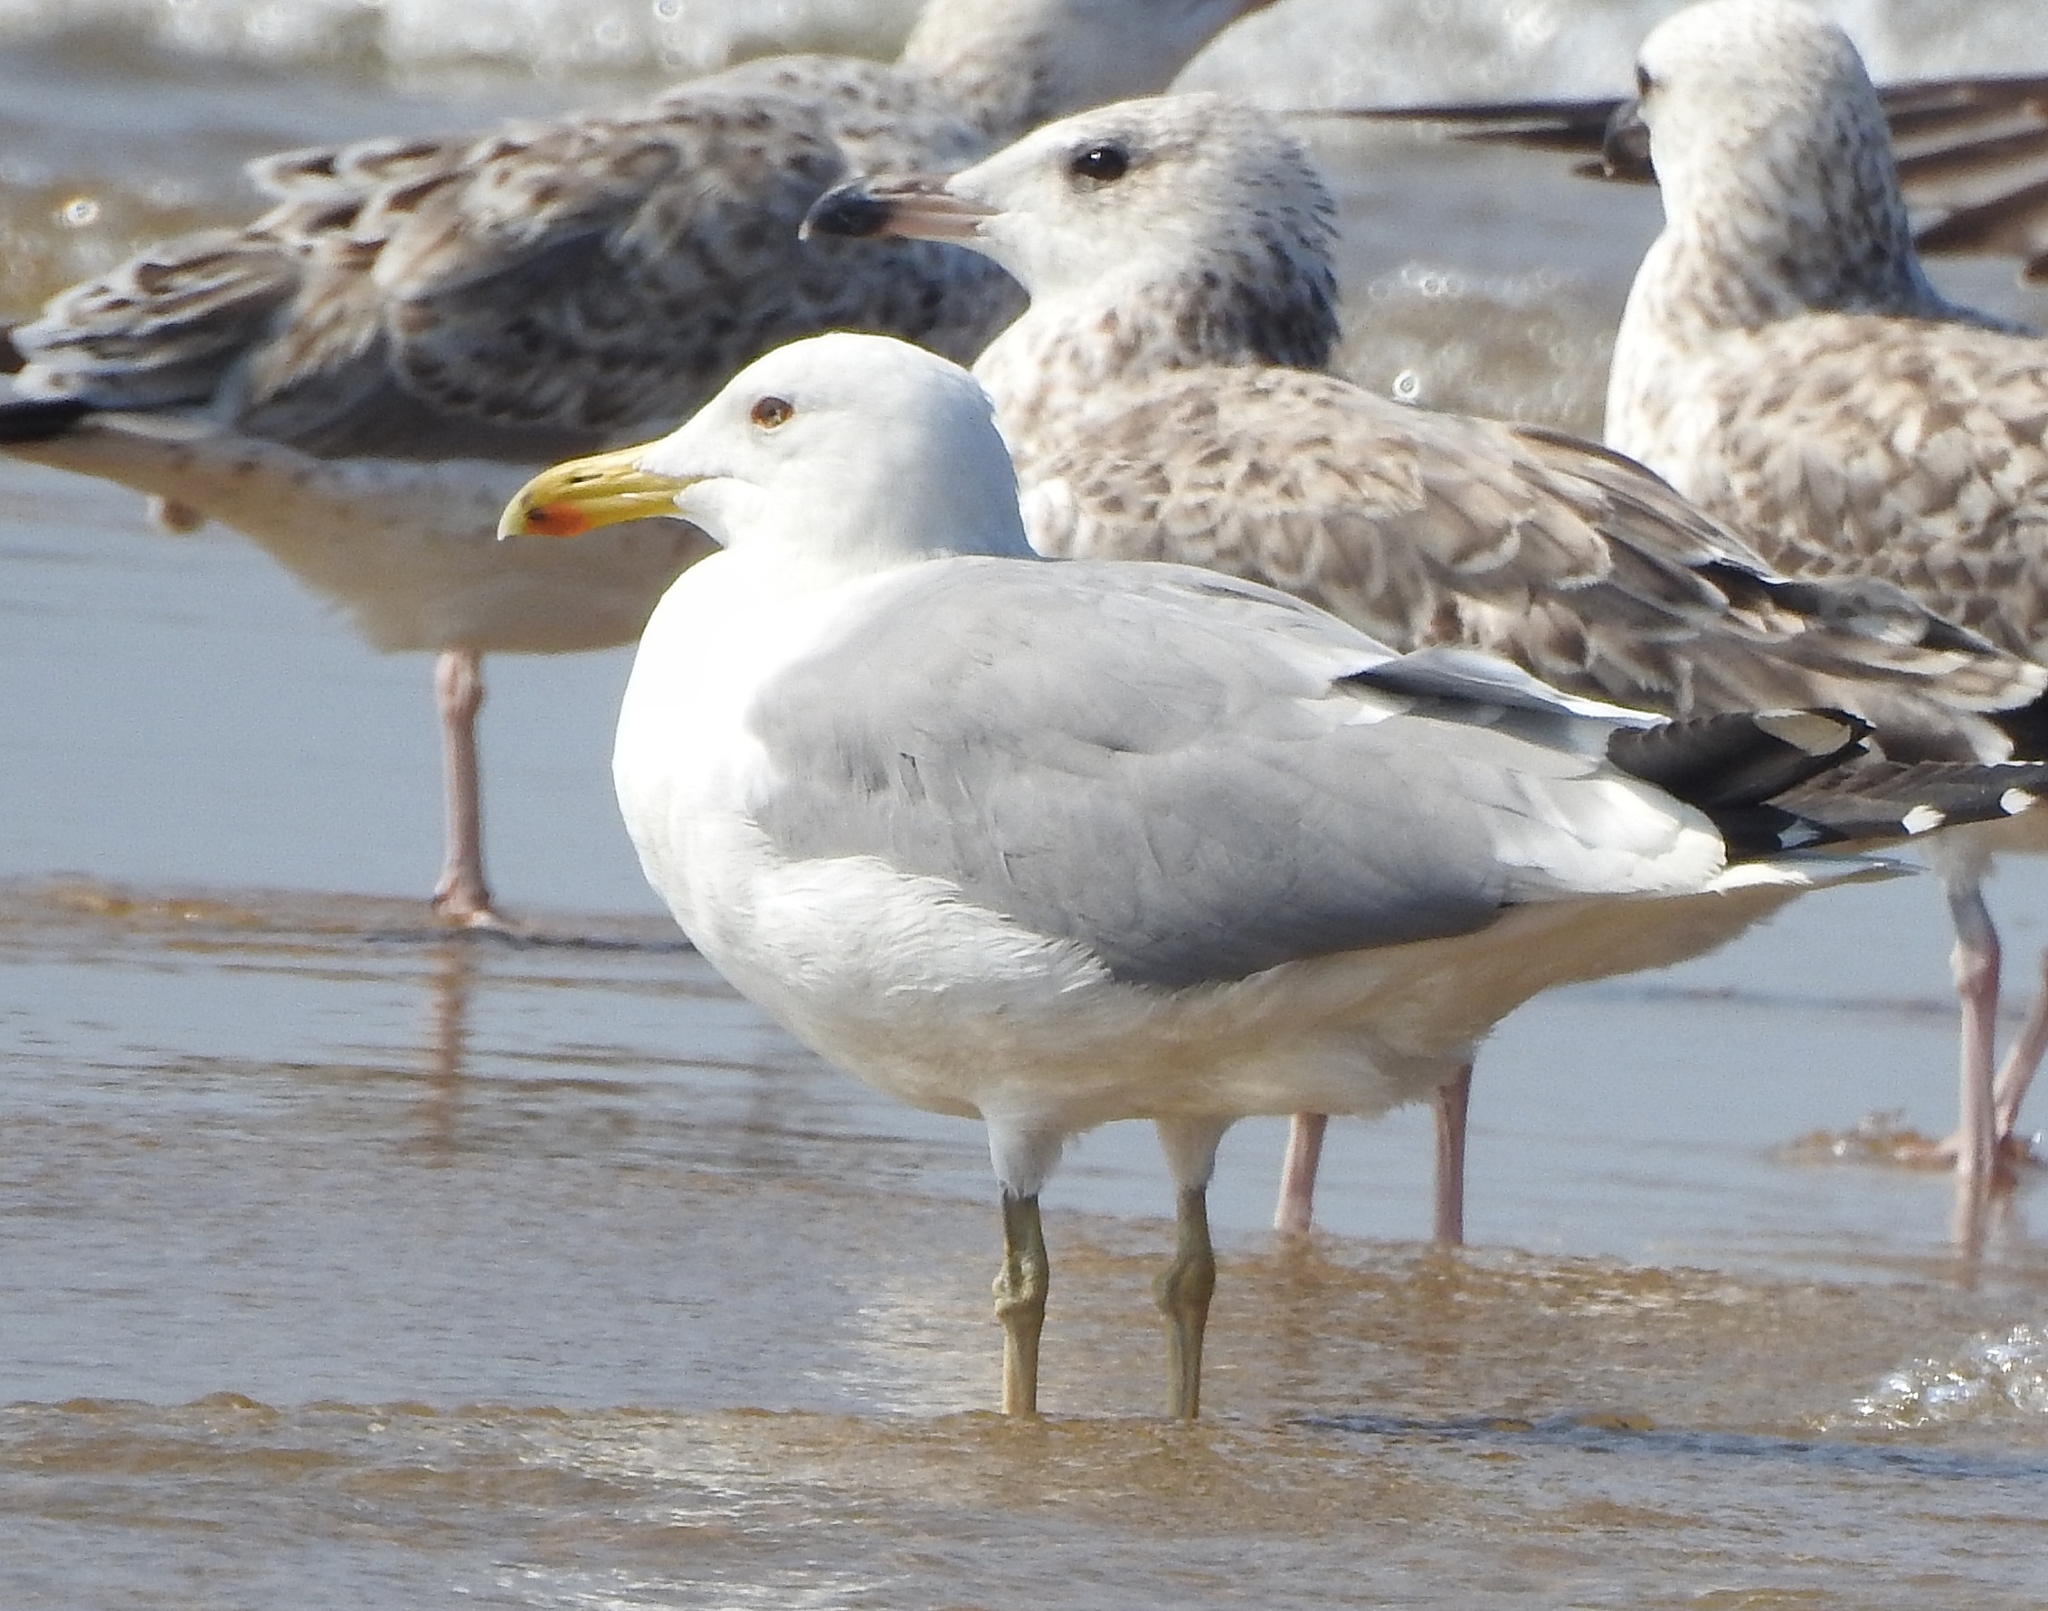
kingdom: Animalia
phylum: Chordata
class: Aves
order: Charadriiformes
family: Laridae
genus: Larus
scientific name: Larus fuscus
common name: Lesser black-backed gull
